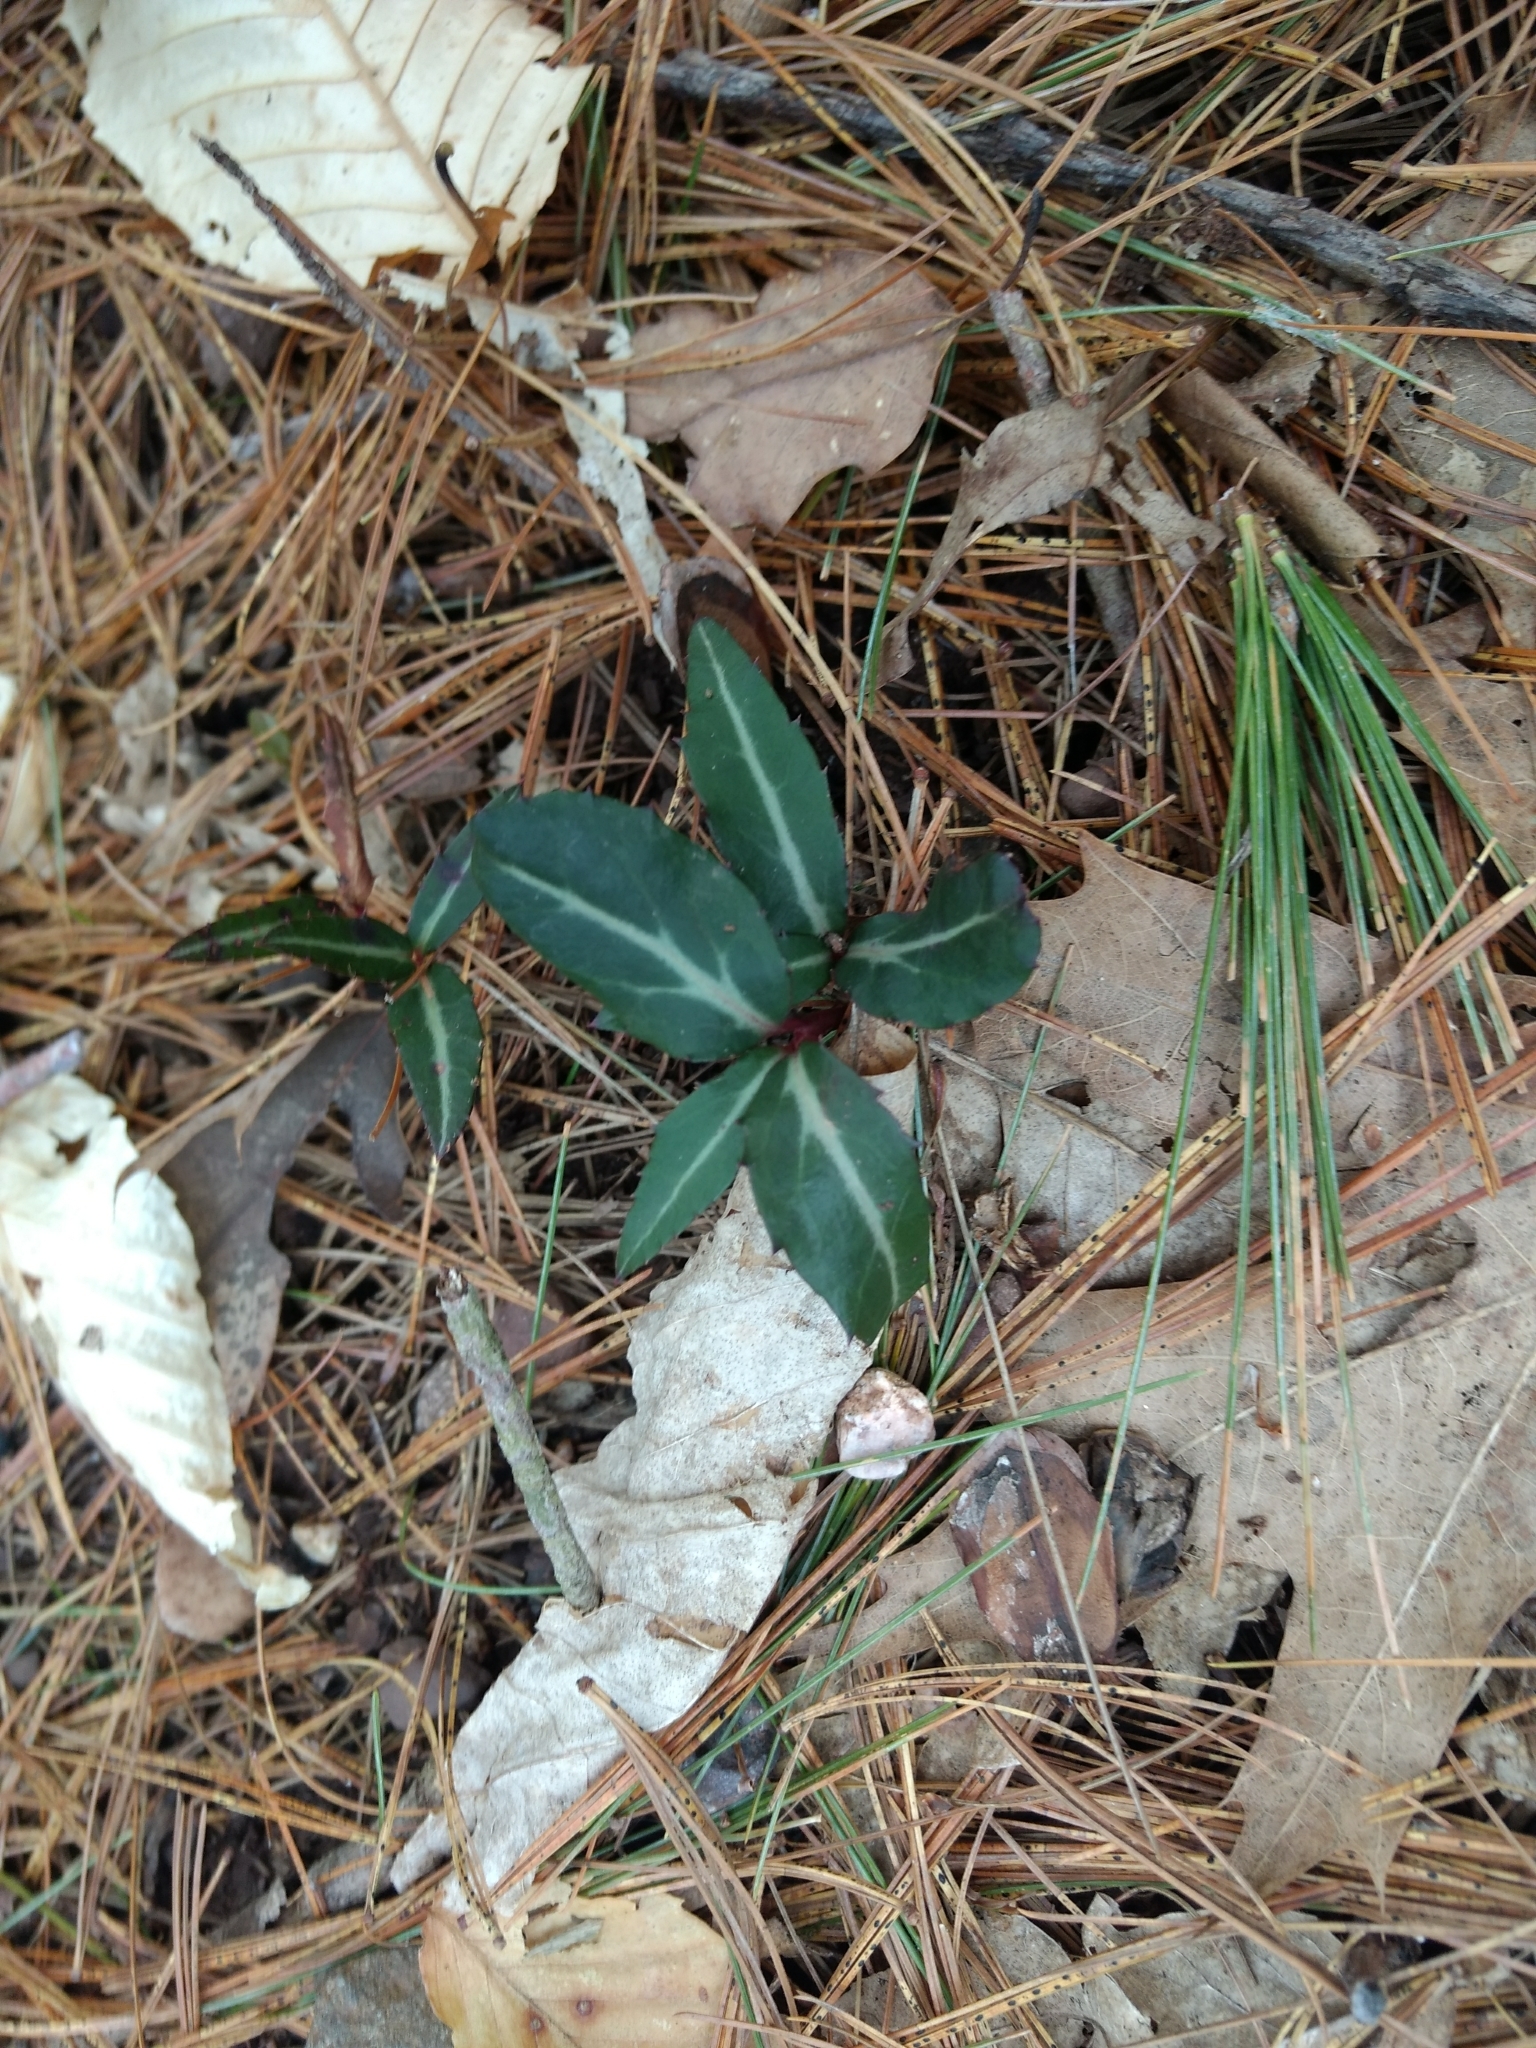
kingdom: Plantae
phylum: Tracheophyta
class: Magnoliopsida
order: Ericales
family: Ericaceae
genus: Chimaphila
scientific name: Chimaphila maculata
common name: Spotted pipsissewa
